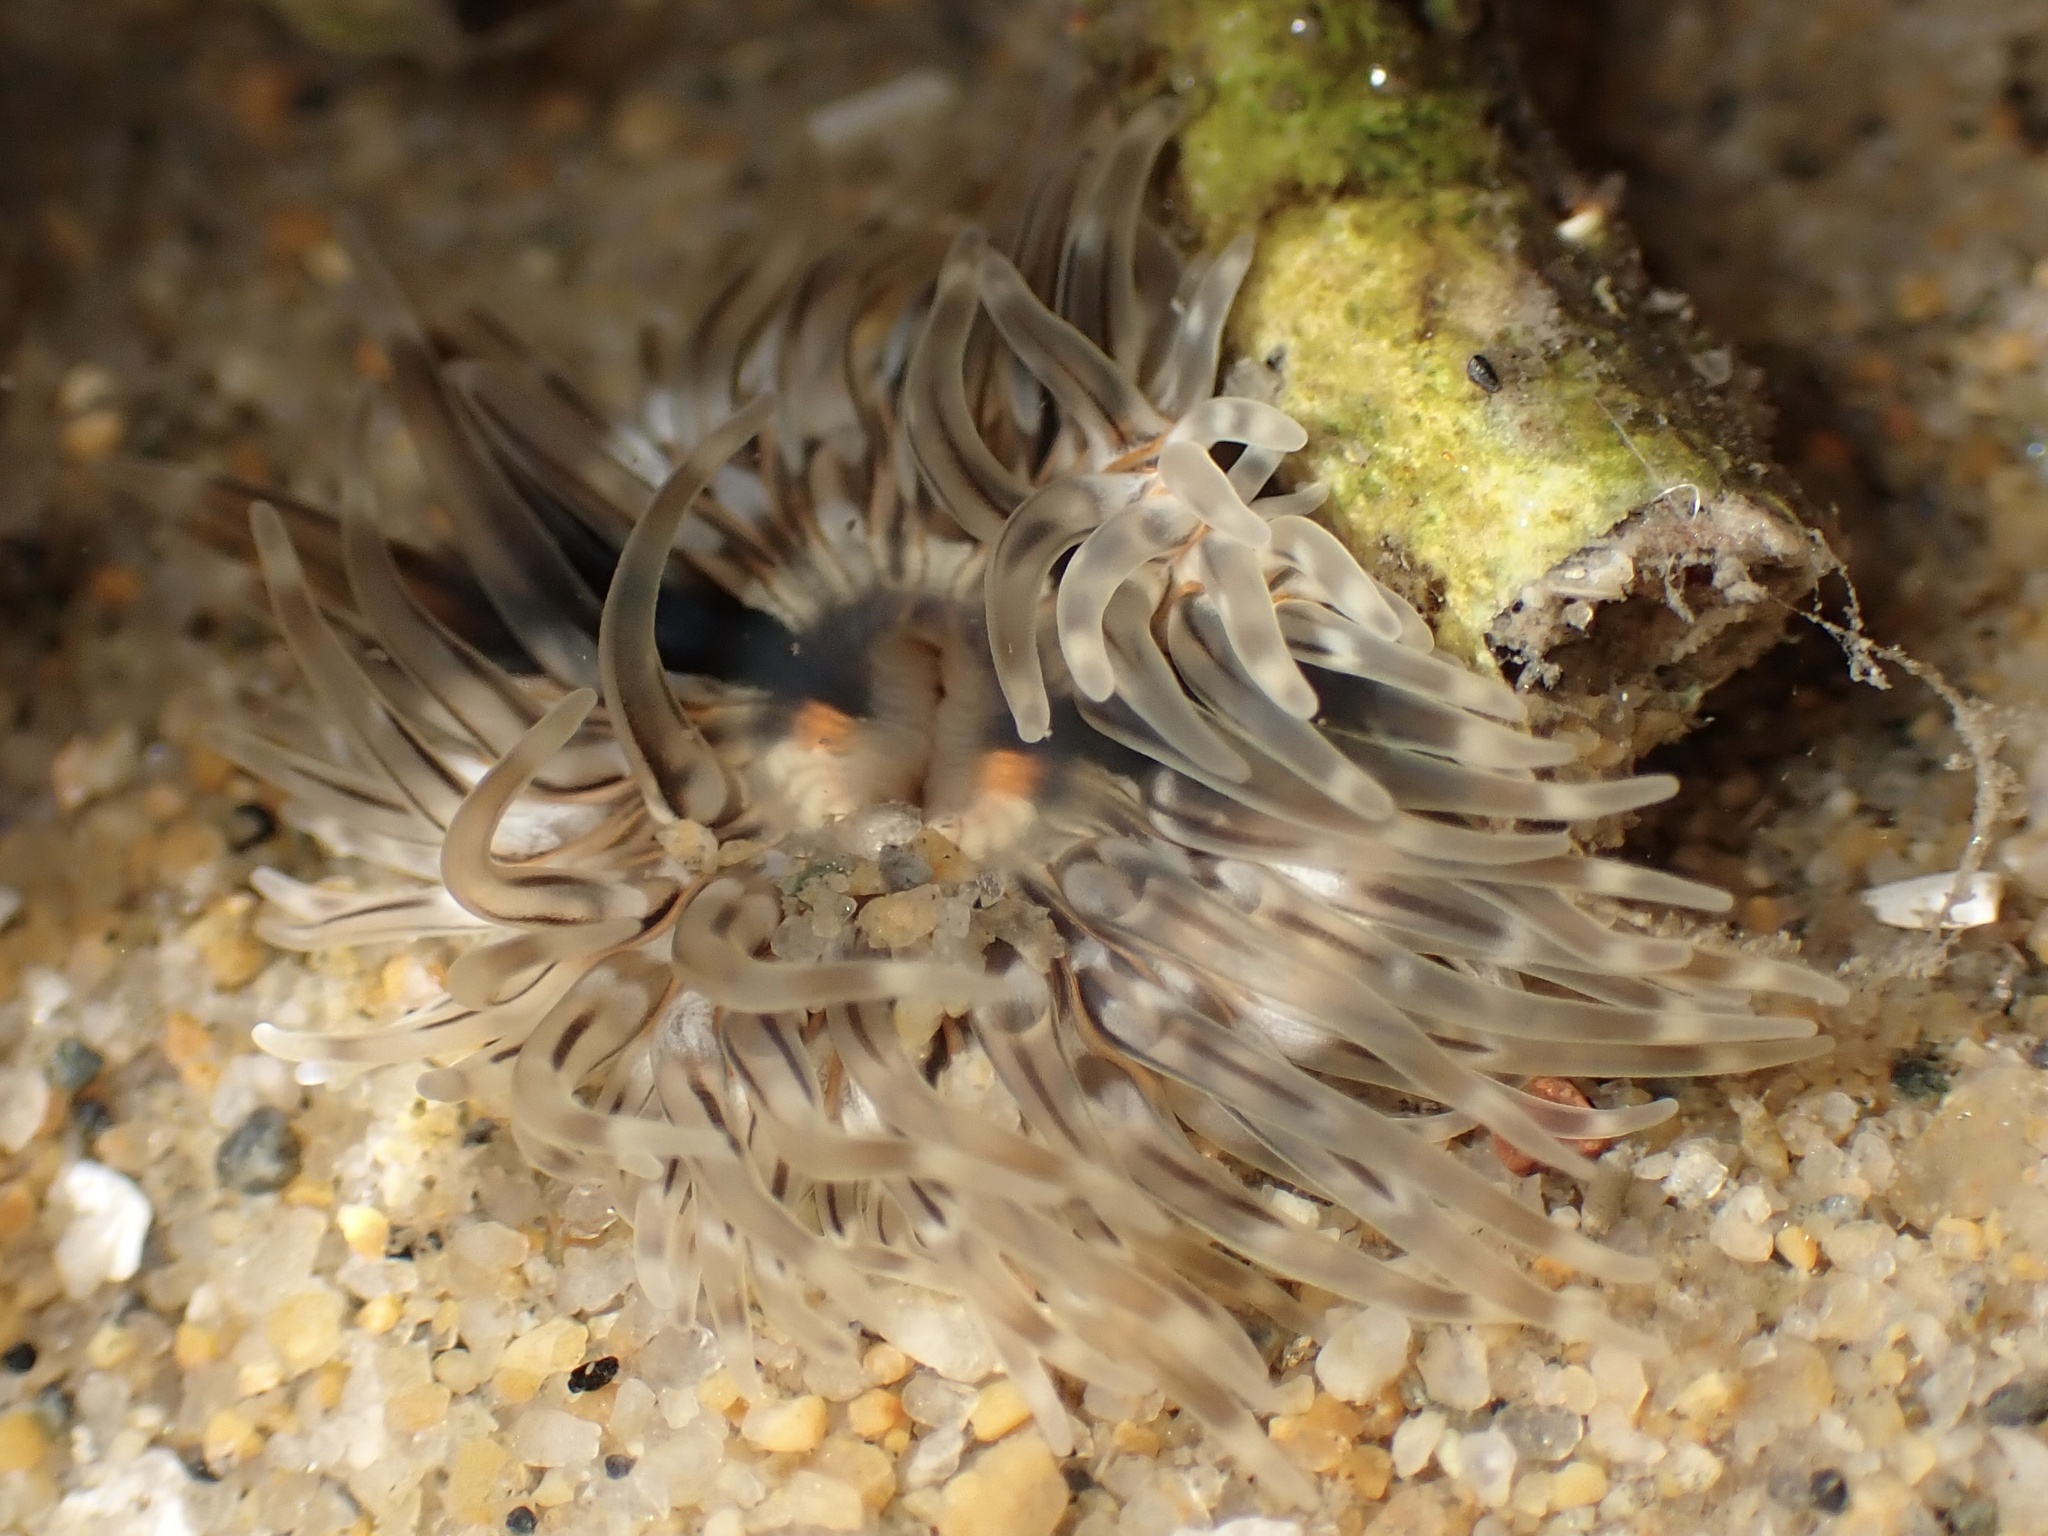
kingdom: Animalia
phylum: Cnidaria
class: Anthozoa
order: Actiniaria
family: Isanthidae
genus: Zaolutus
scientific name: Zaolutus actius
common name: Wormy anemone
